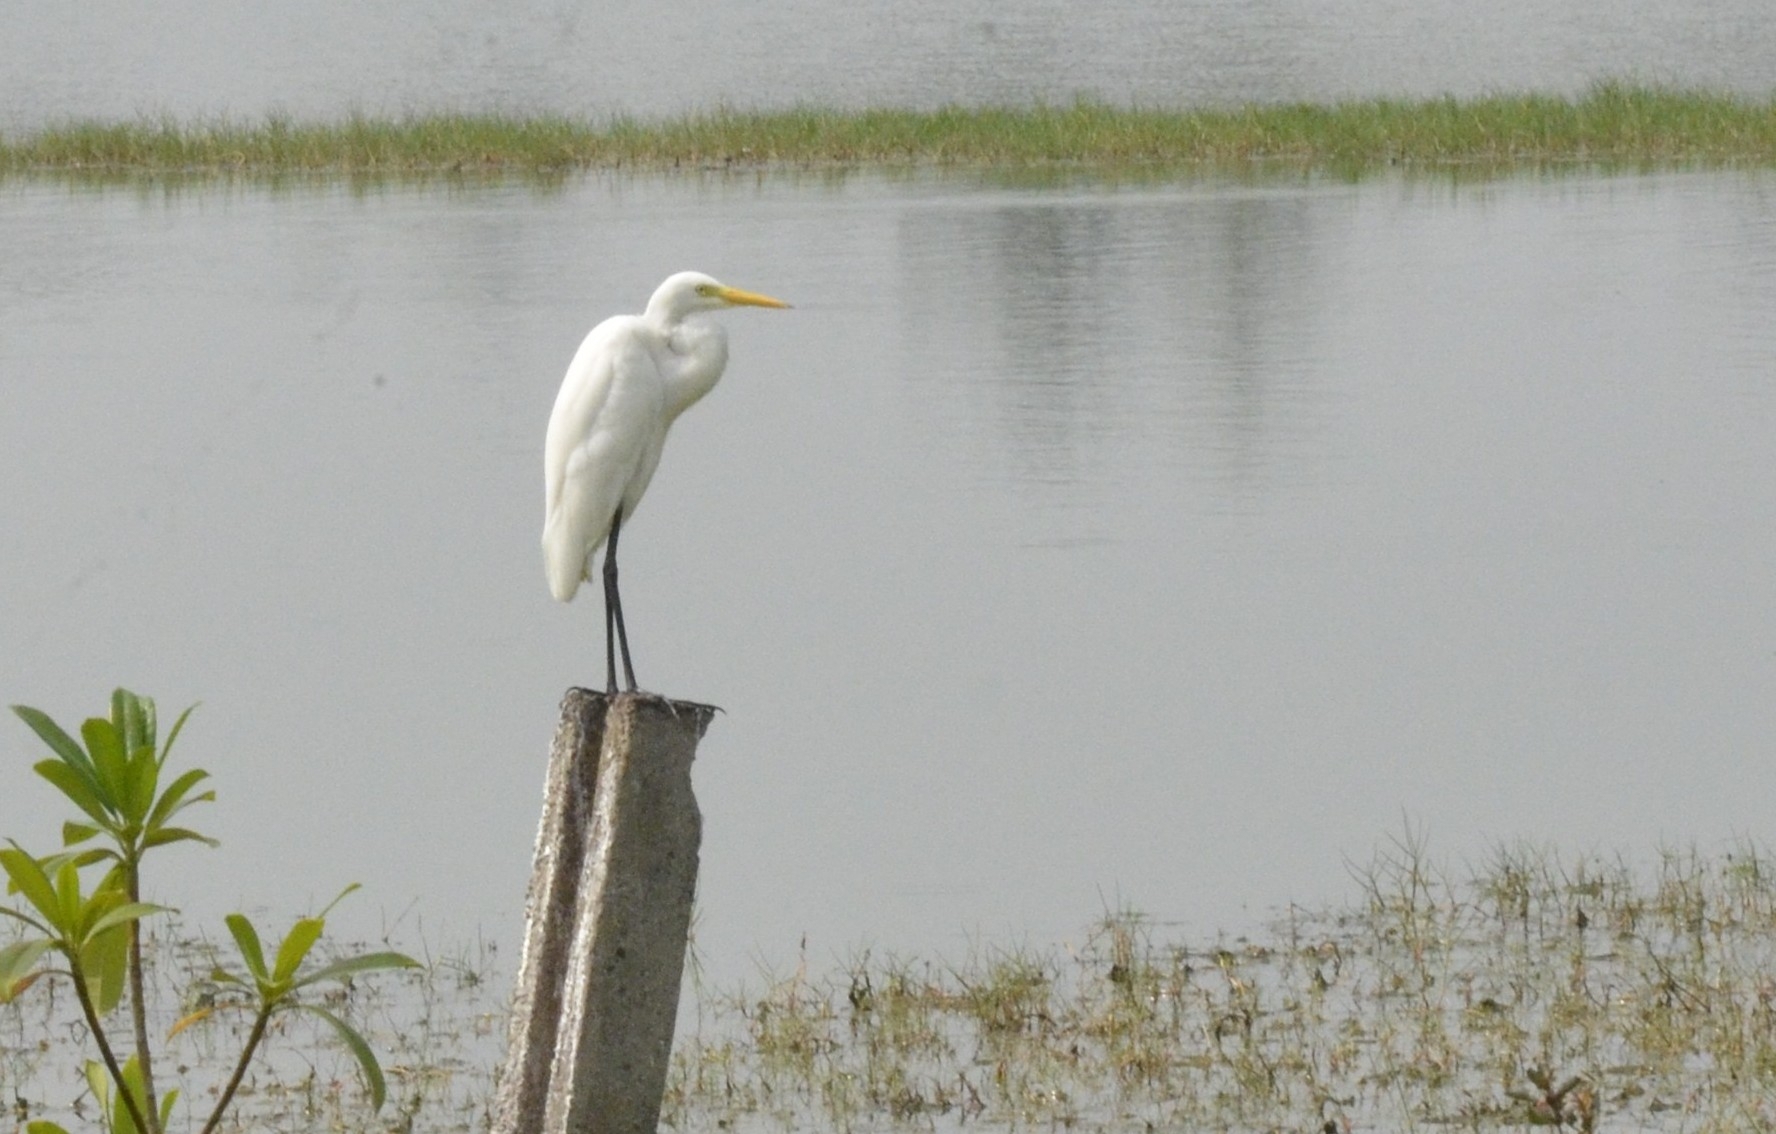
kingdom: Animalia
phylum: Chordata
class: Aves
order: Pelecaniformes
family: Ardeidae
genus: Egretta
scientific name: Egretta intermedia
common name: Intermediate egret
